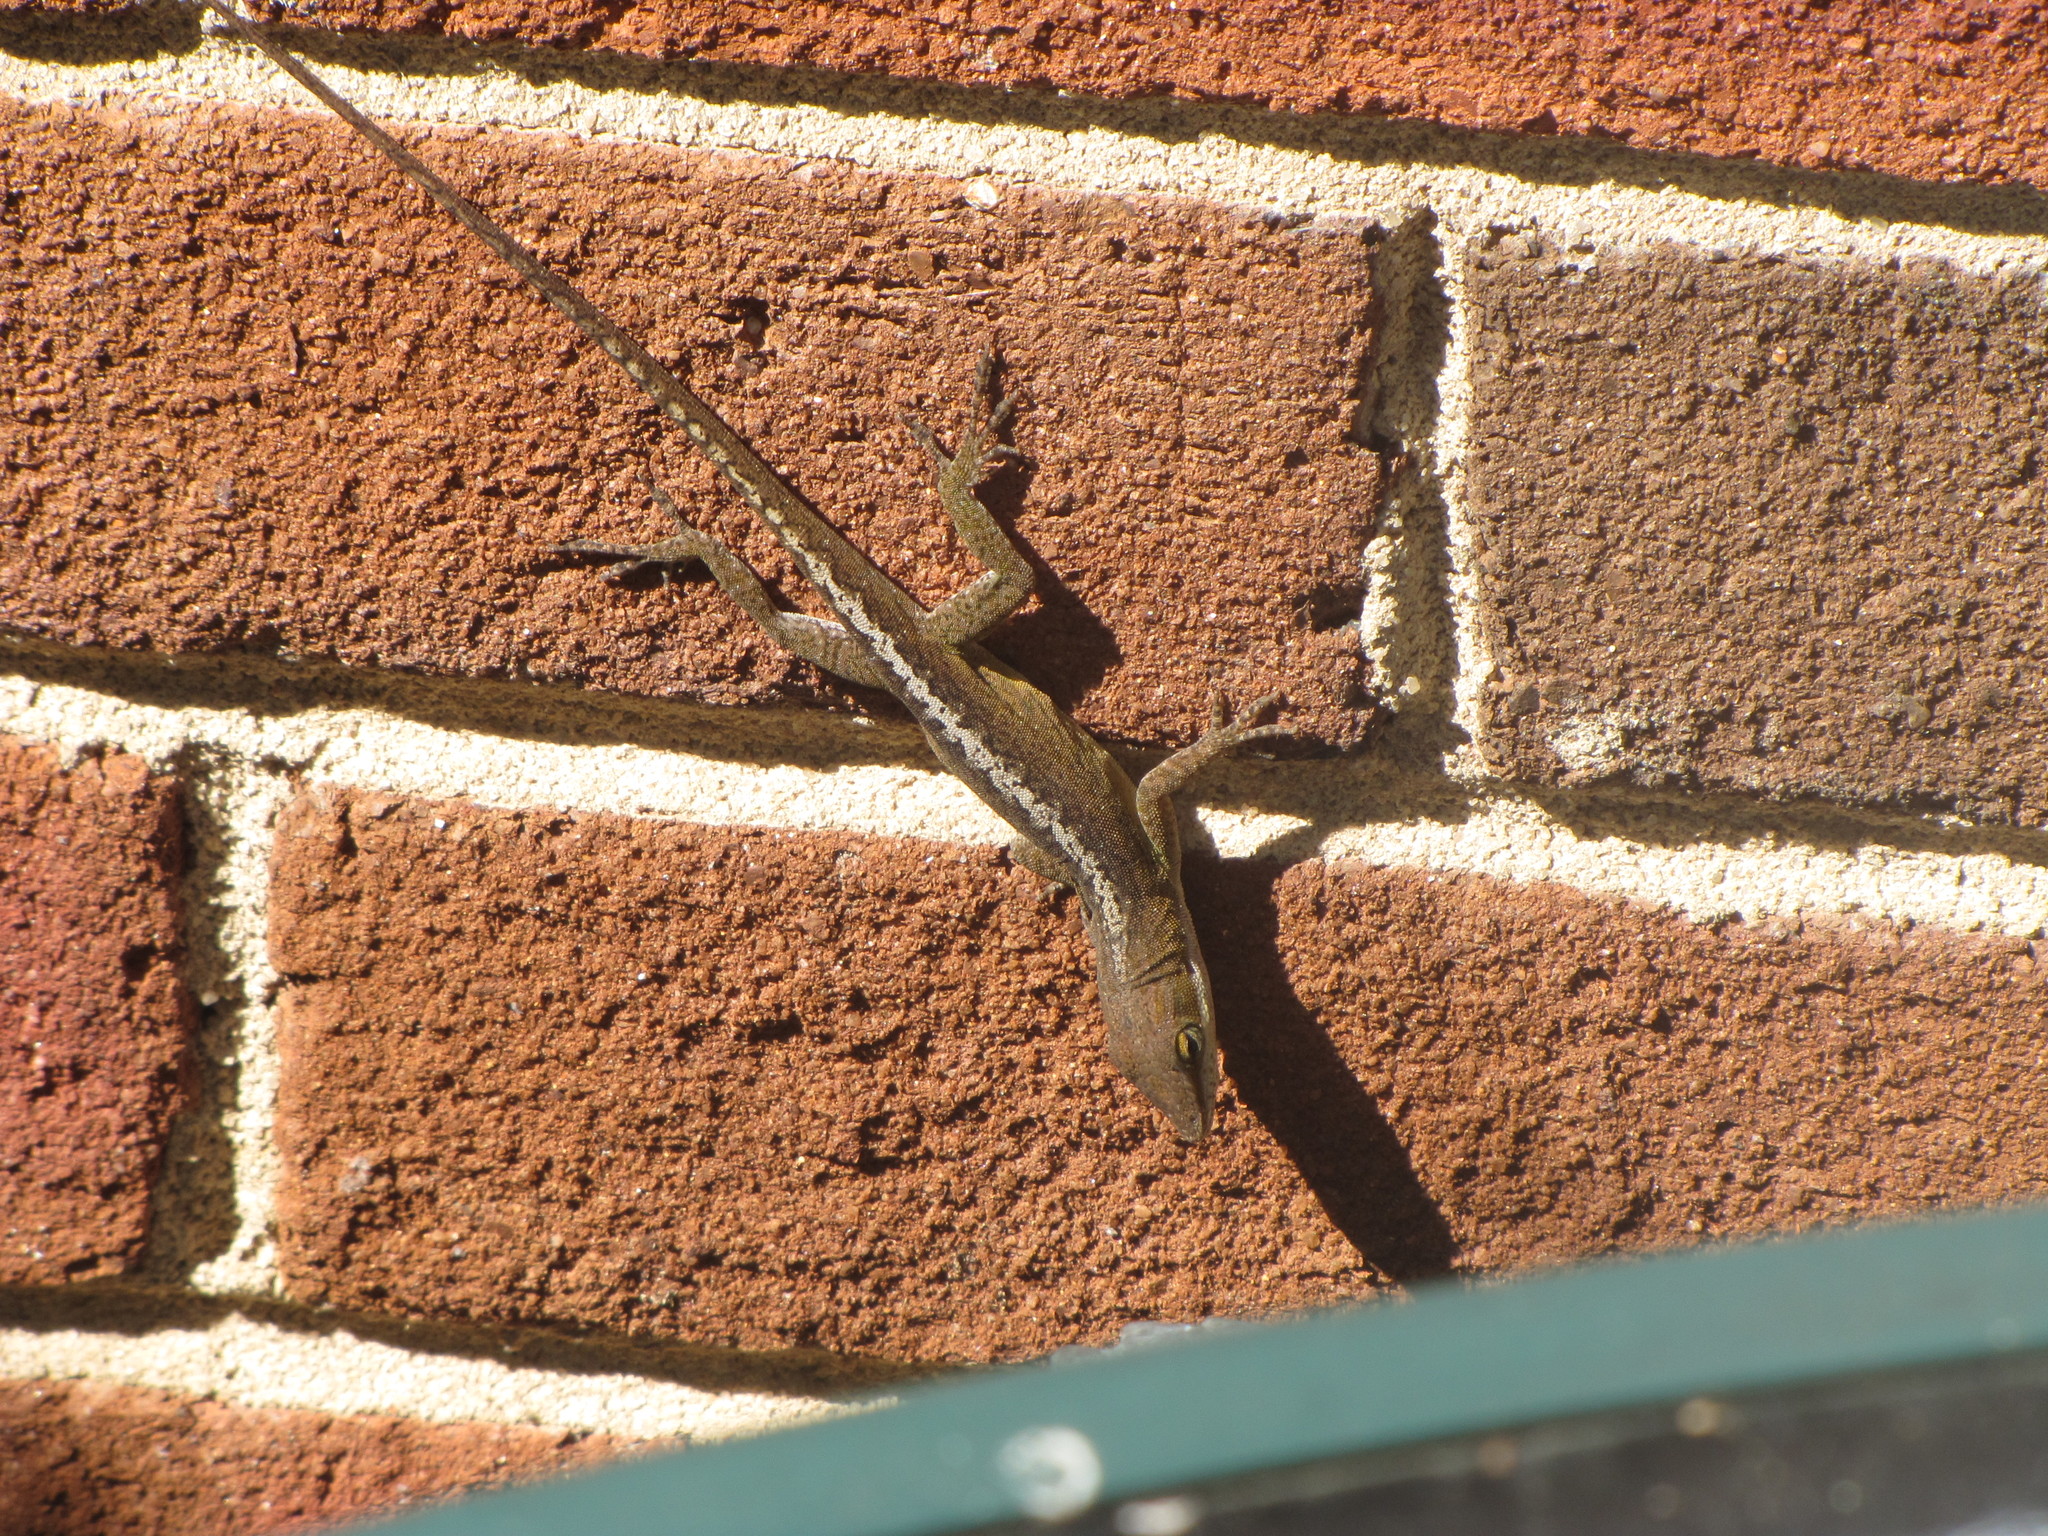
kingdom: Animalia
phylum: Chordata
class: Squamata
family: Dactyloidae
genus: Anolis
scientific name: Anolis carolinensis
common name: Green anole
